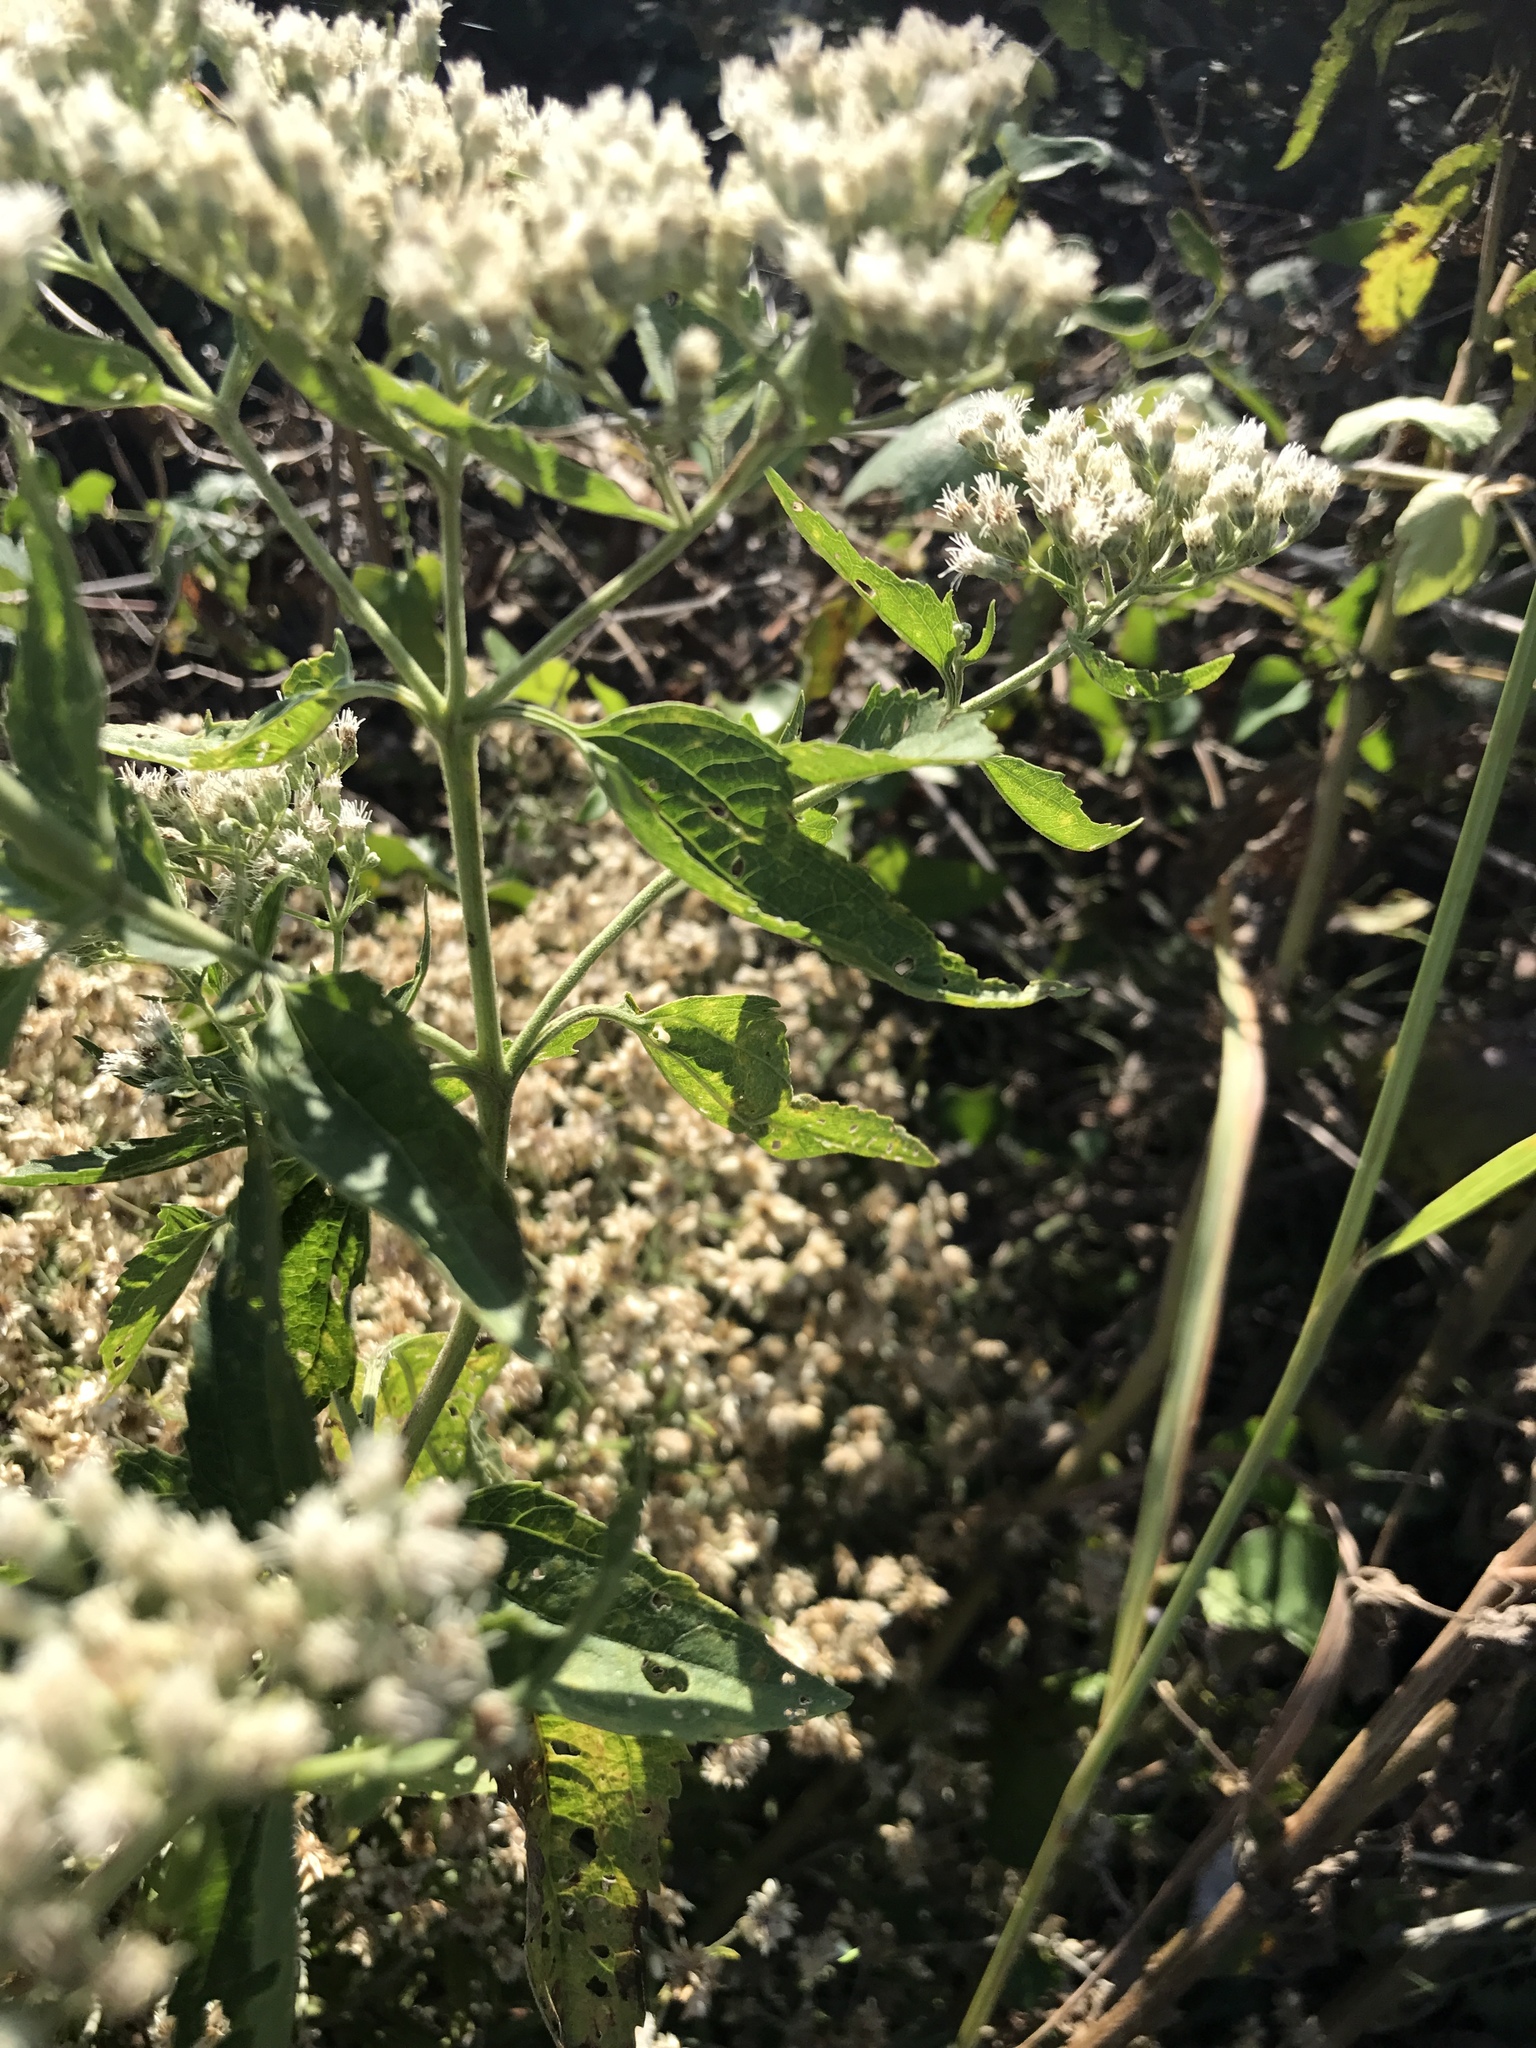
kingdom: Plantae
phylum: Tracheophyta
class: Magnoliopsida
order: Asterales
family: Asteraceae
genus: Eupatorium
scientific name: Eupatorium serotinum
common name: Late boneset
